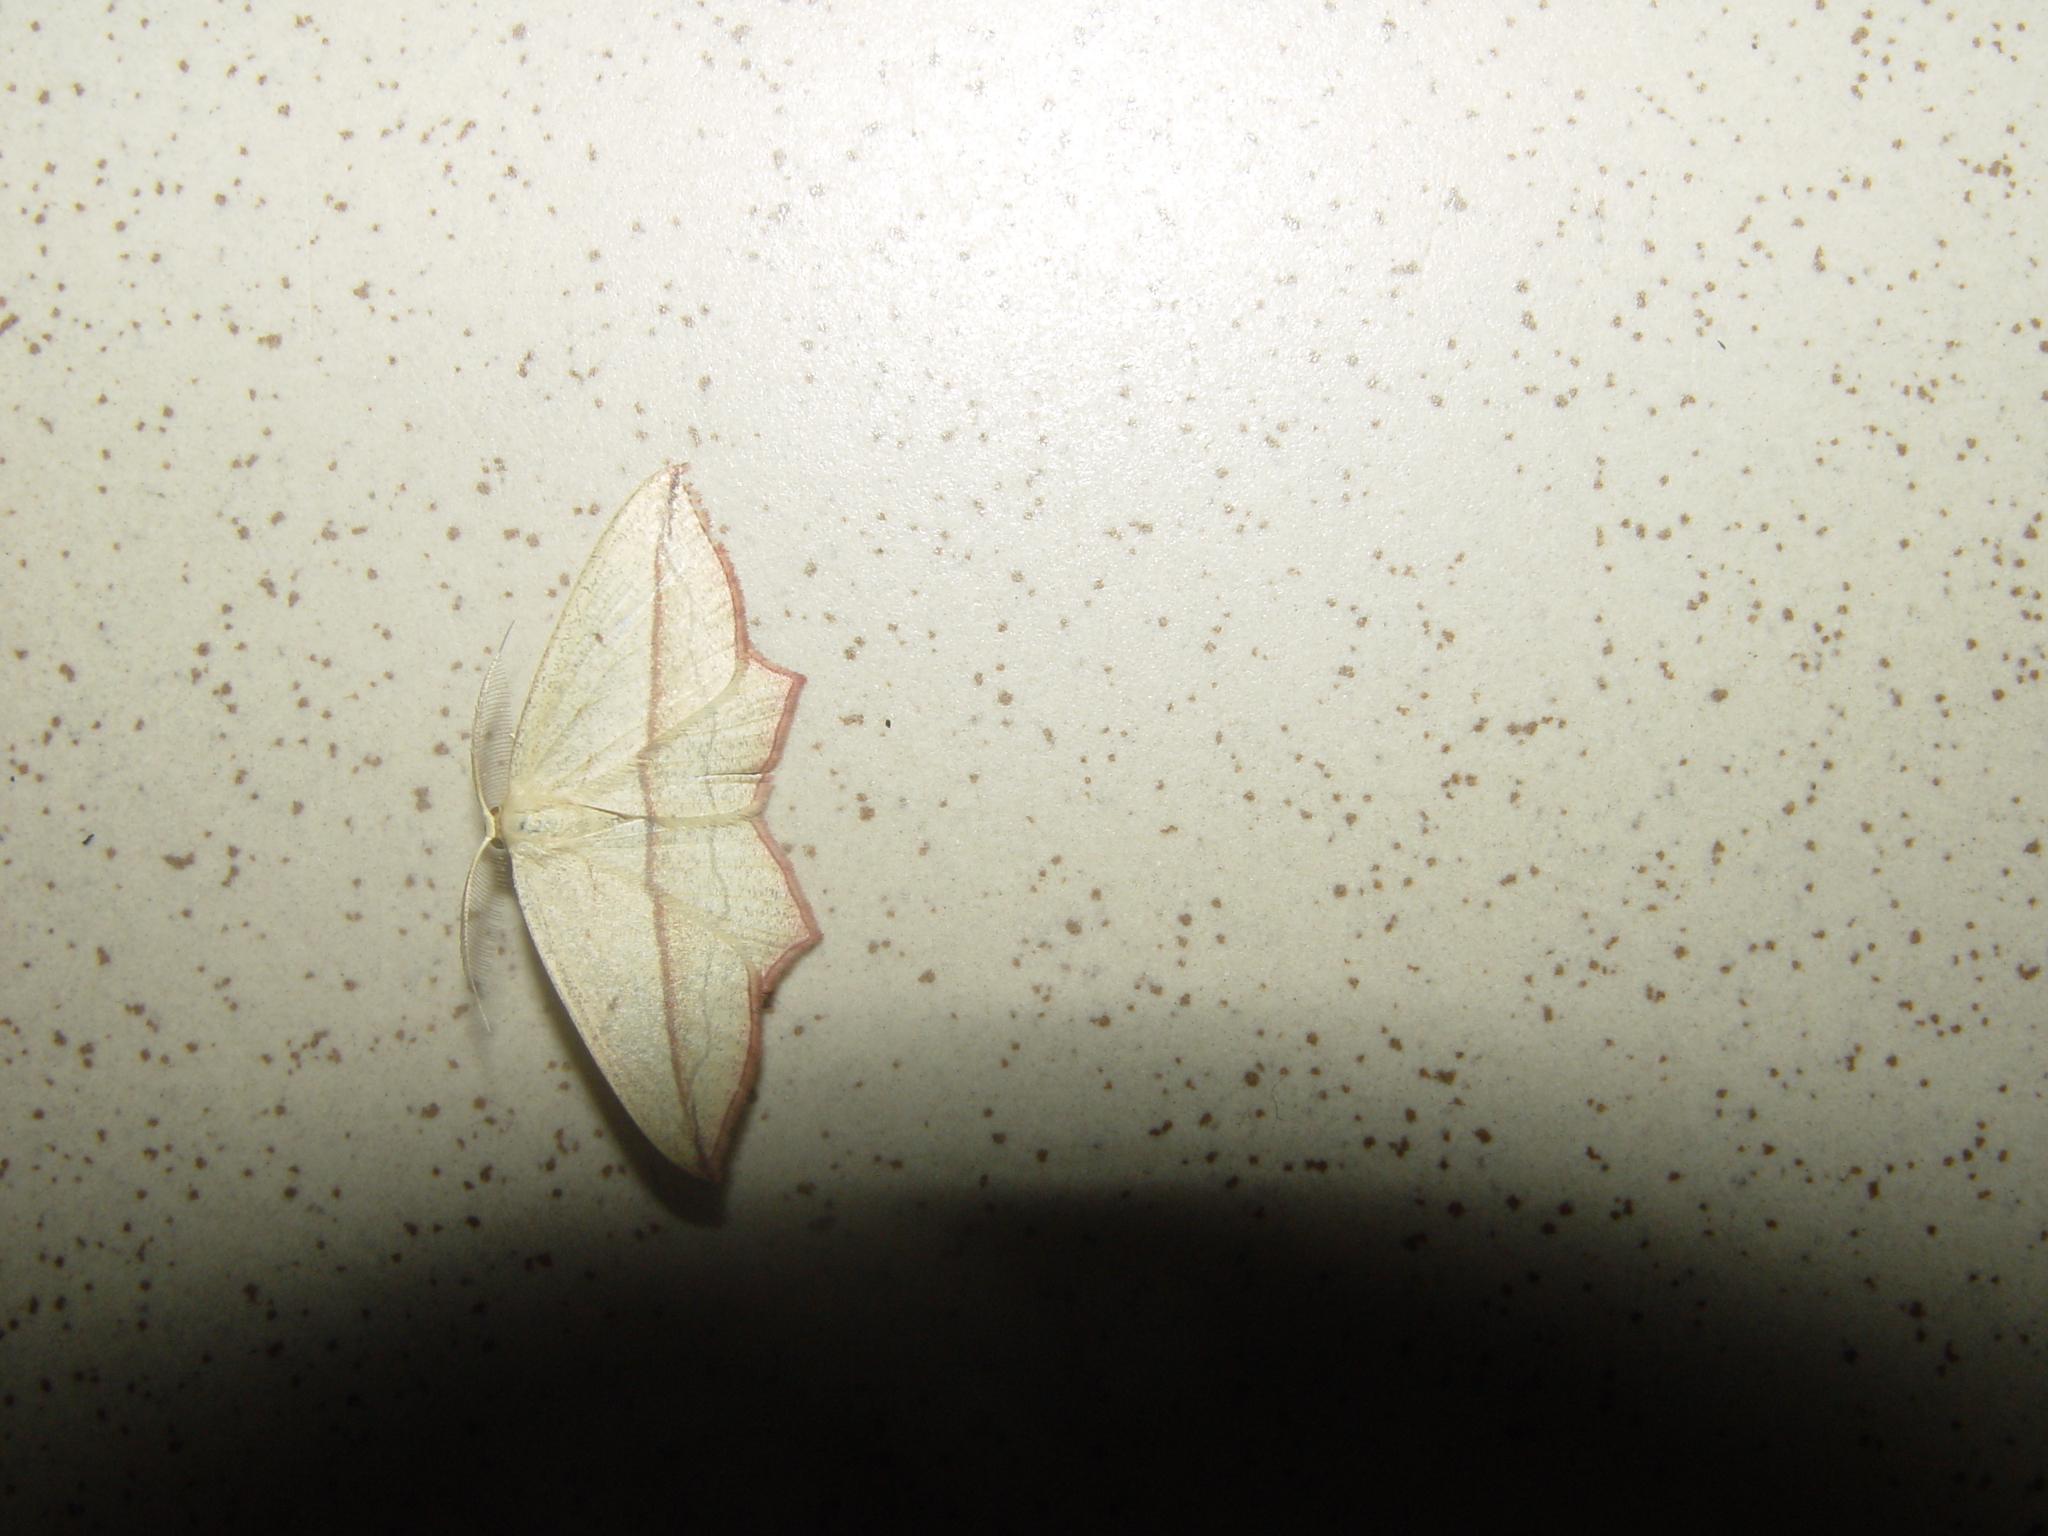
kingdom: Animalia
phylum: Arthropoda
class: Insecta
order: Lepidoptera
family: Geometridae
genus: Timandra
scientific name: Timandra comae
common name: Blood-vein
